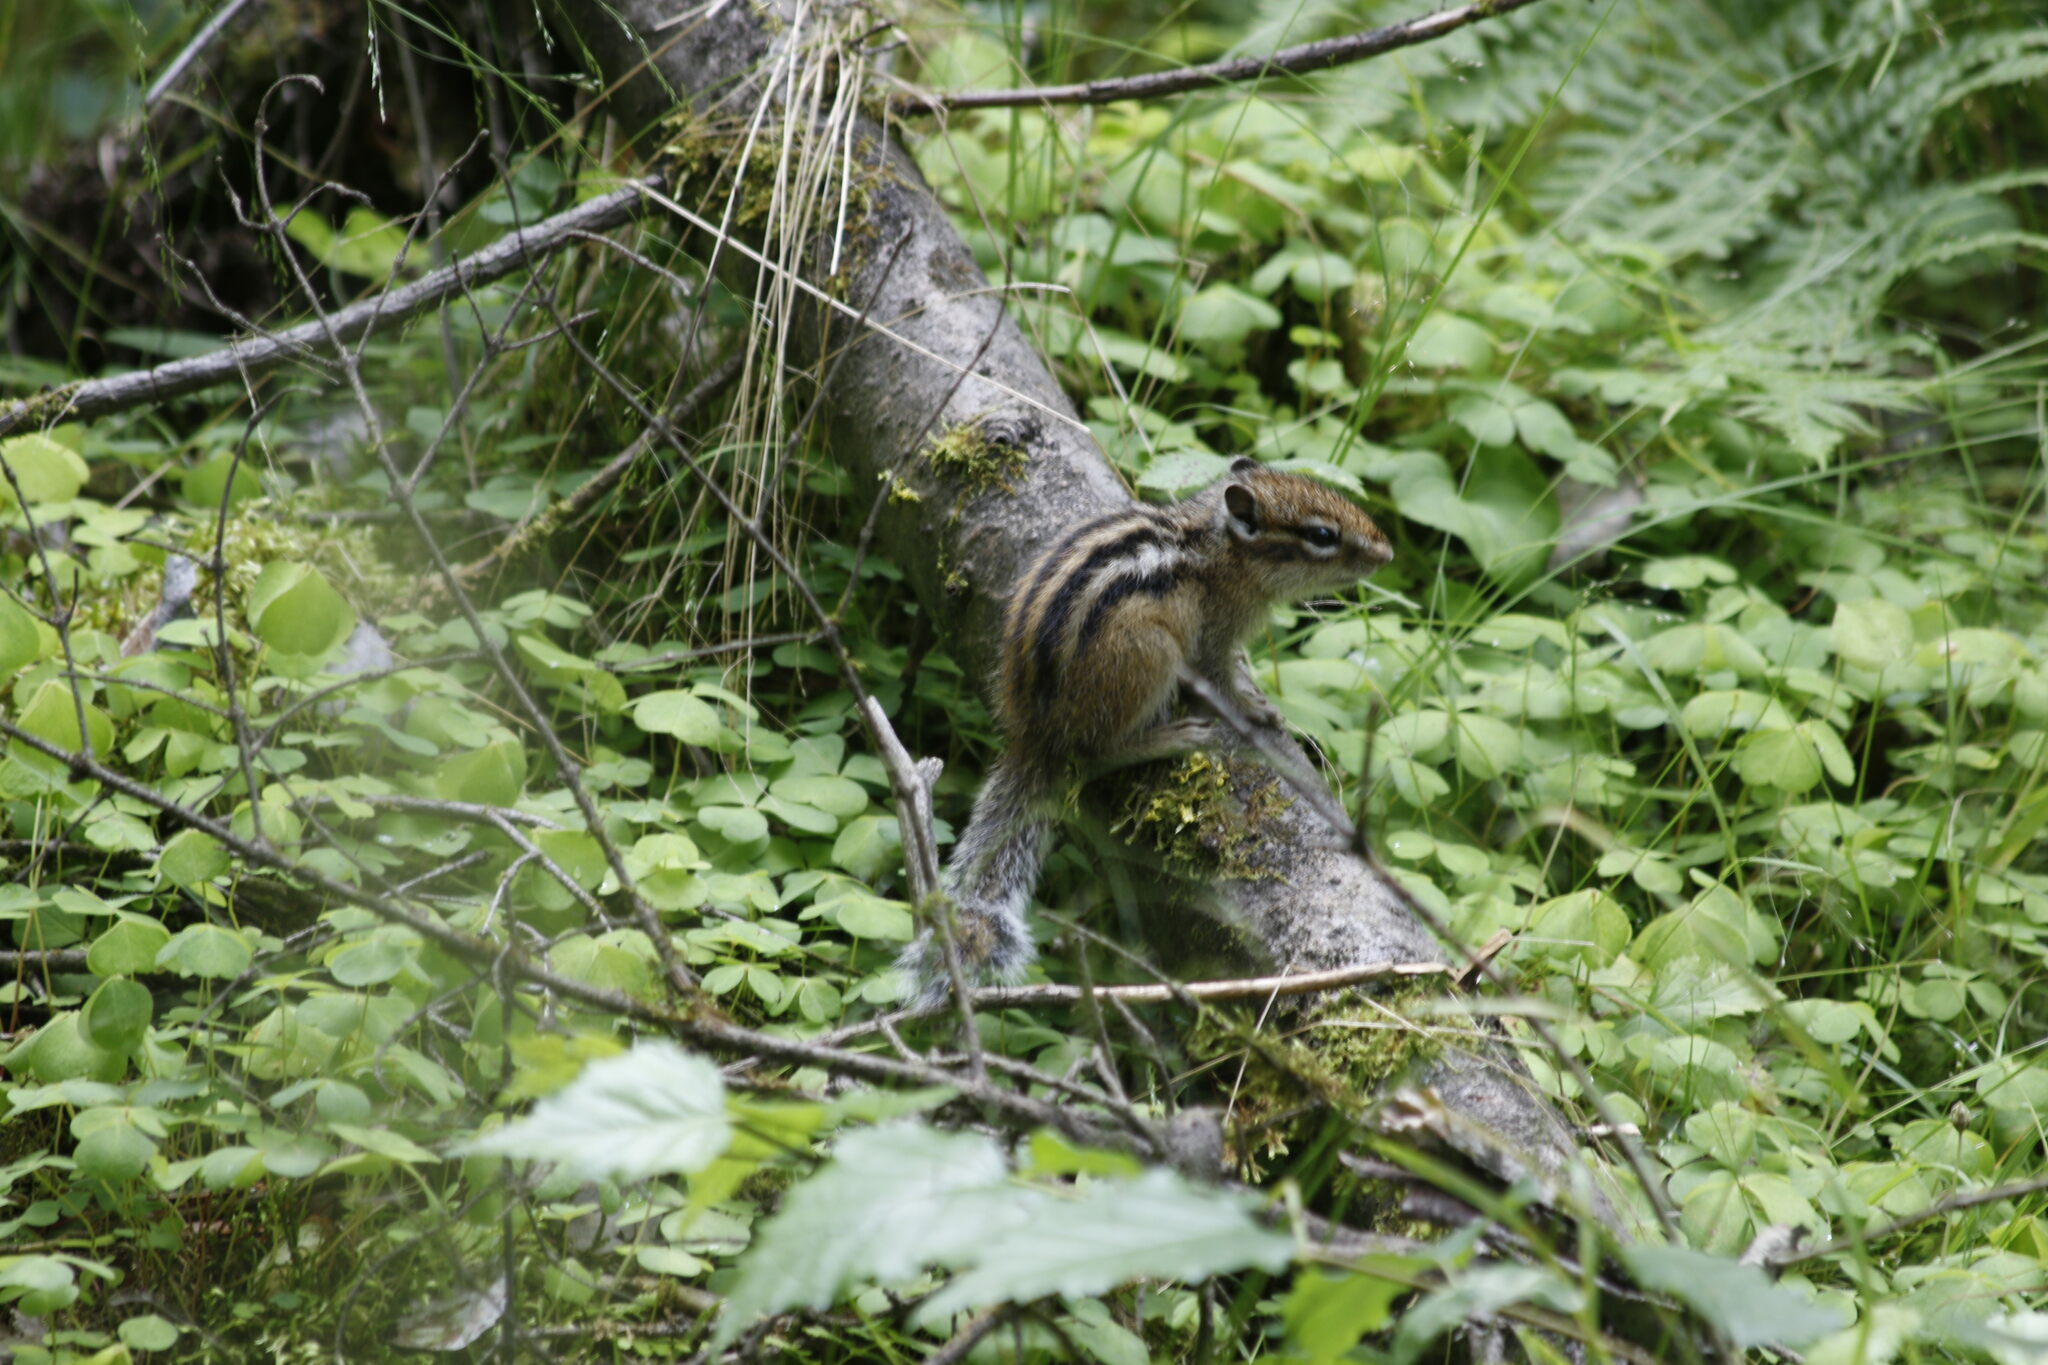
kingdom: Animalia
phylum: Chordata
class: Mammalia
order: Rodentia
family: Sciuridae
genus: Tamias
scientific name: Tamias sibiricus
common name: Siberian chipmunk
